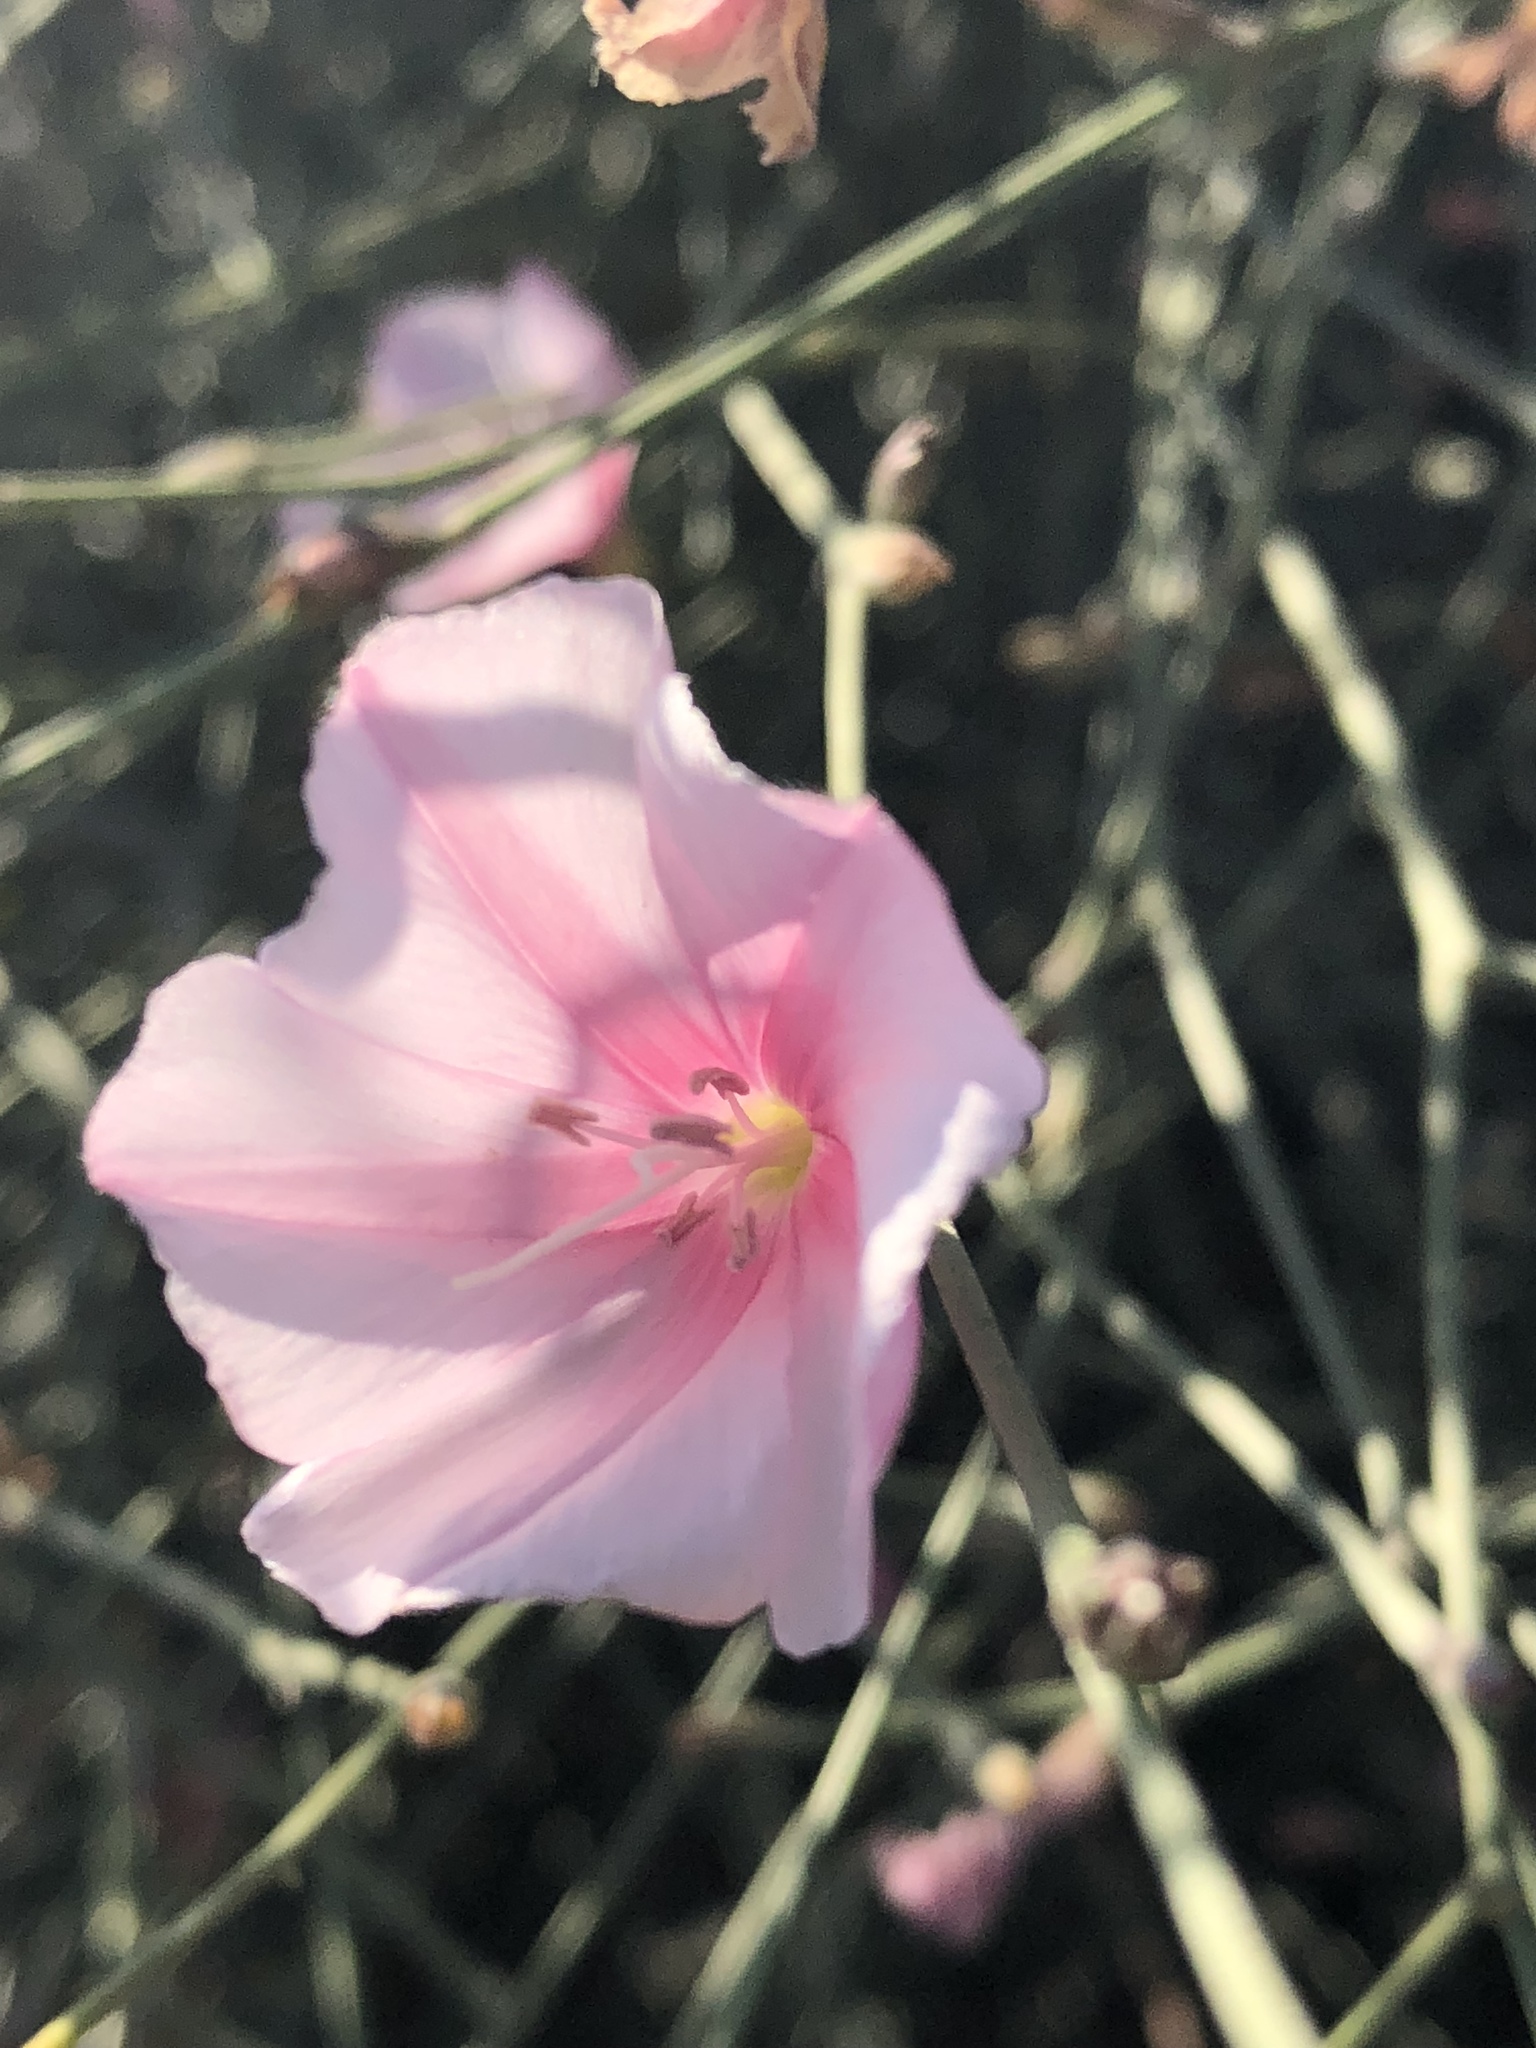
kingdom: Plantae
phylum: Tracheophyta
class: Magnoliopsida
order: Solanales
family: Convolvulaceae
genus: Convolvulus
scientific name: Convolvulus dorycnium
